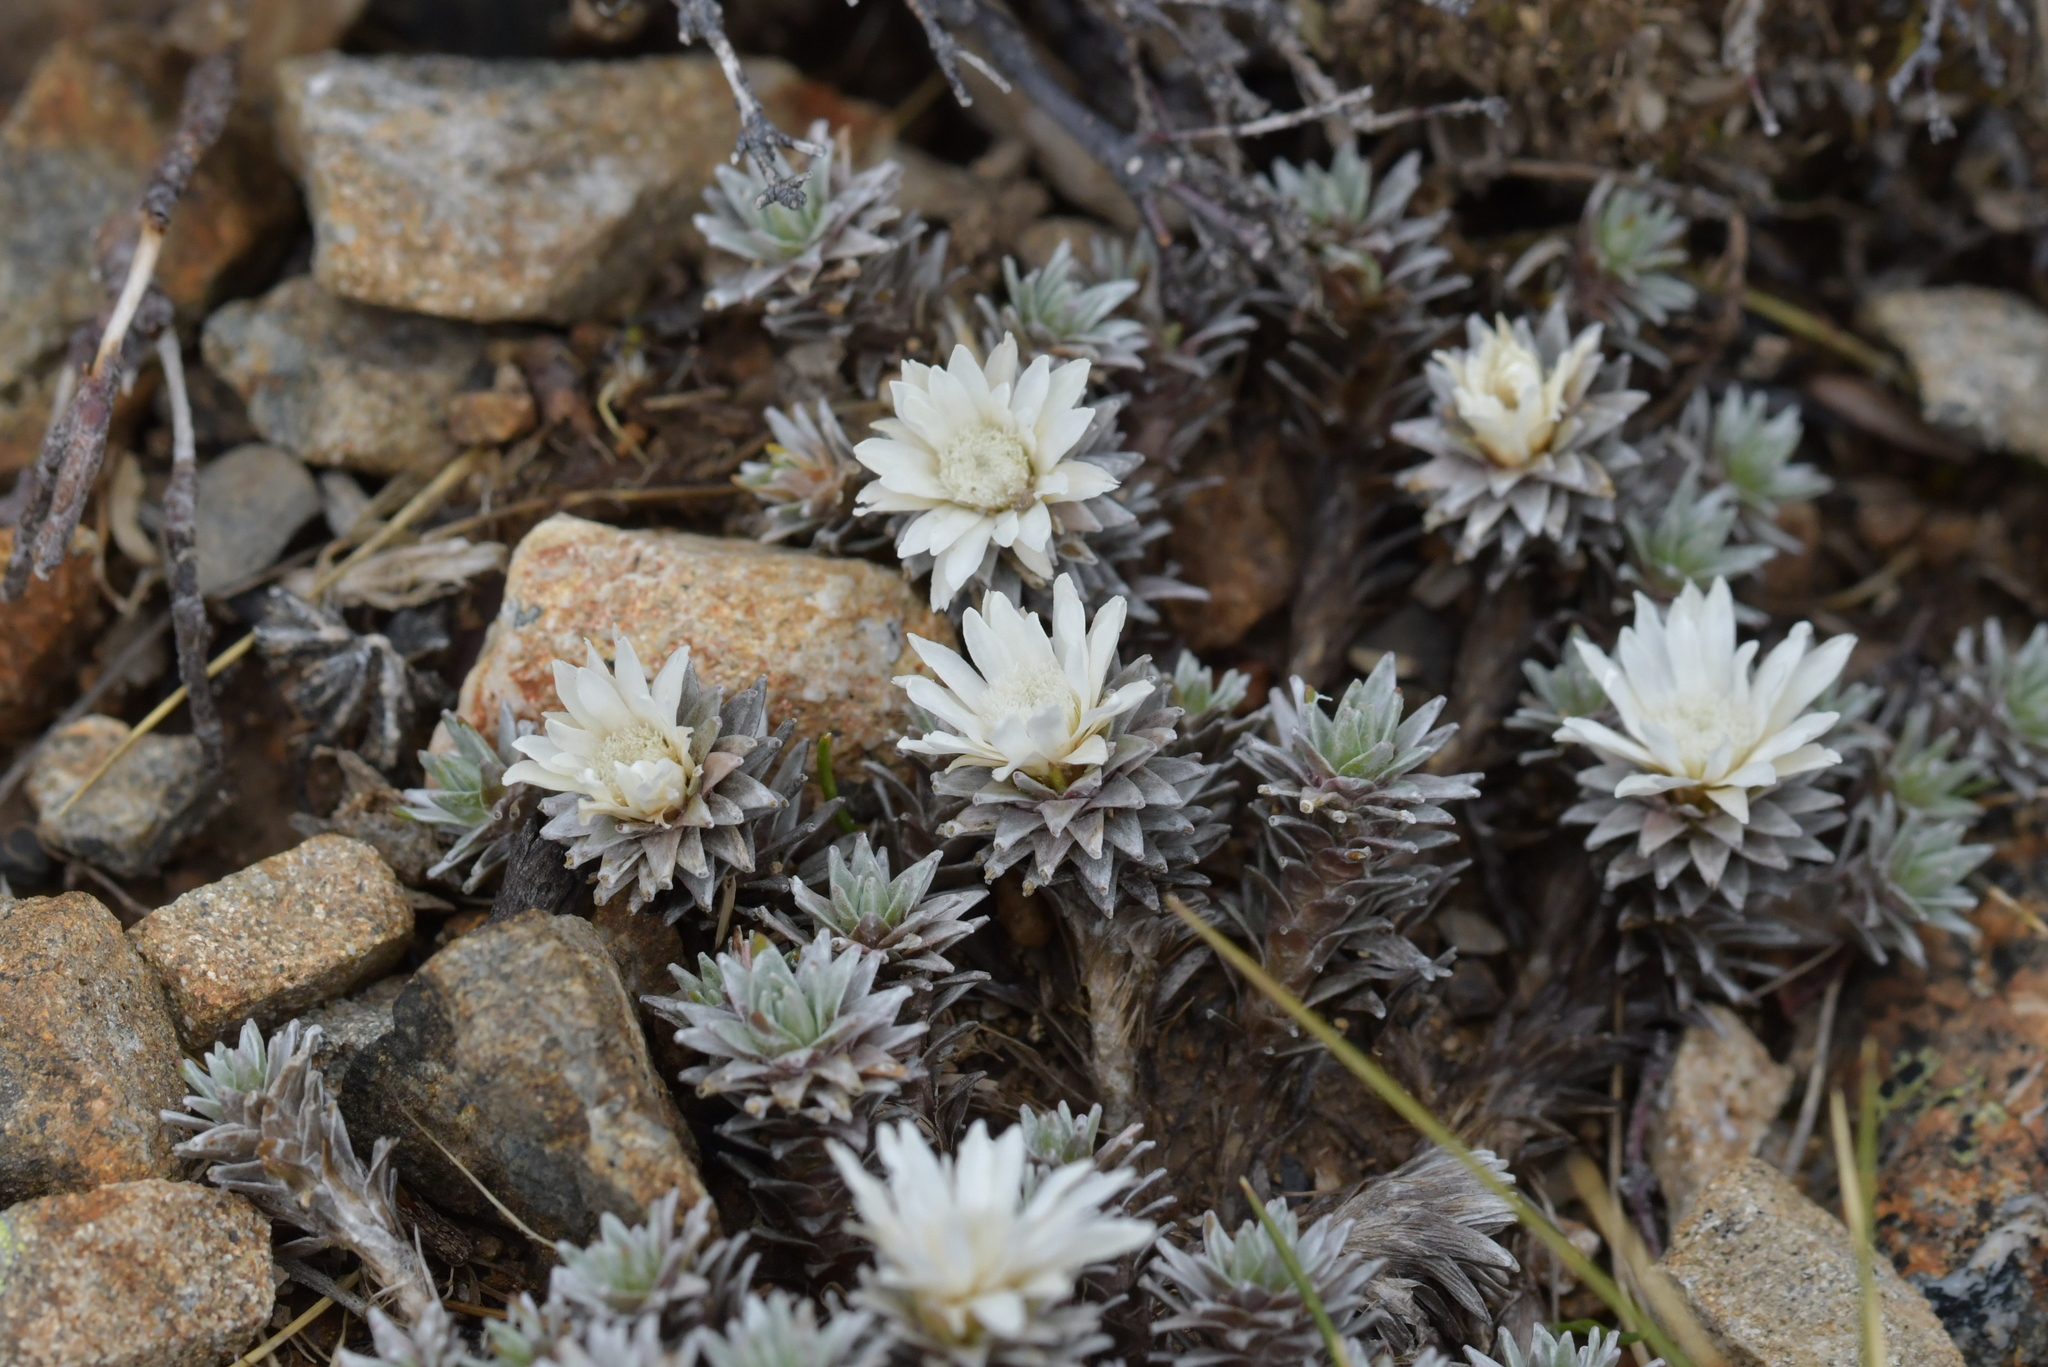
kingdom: Plantae
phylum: Tracheophyta
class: Magnoliopsida
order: Asterales
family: Asteraceae
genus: Raoulia
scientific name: Raoulia grandiflora
